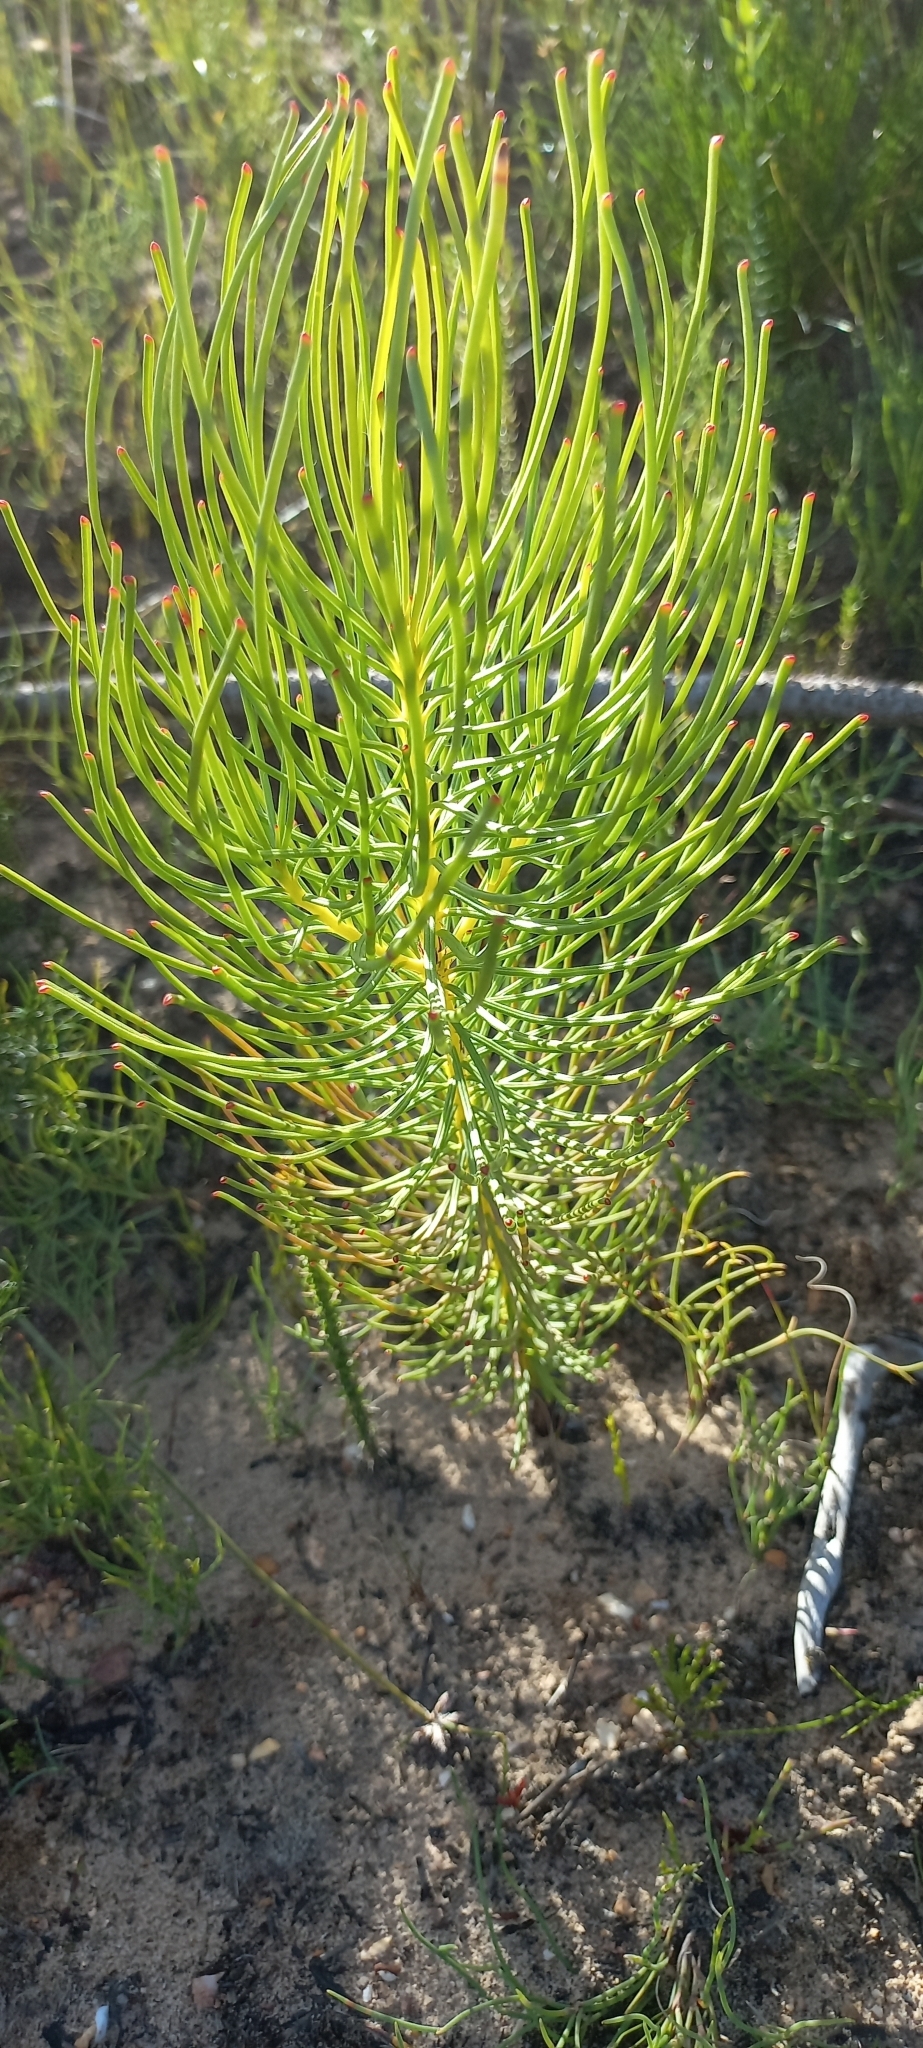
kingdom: Plantae
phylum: Tracheophyta
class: Magnoliopsida
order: Proteales
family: Proteaceae
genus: Leucadendron
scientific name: Leucadendron platyspermum
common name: Plate-seed conebush
